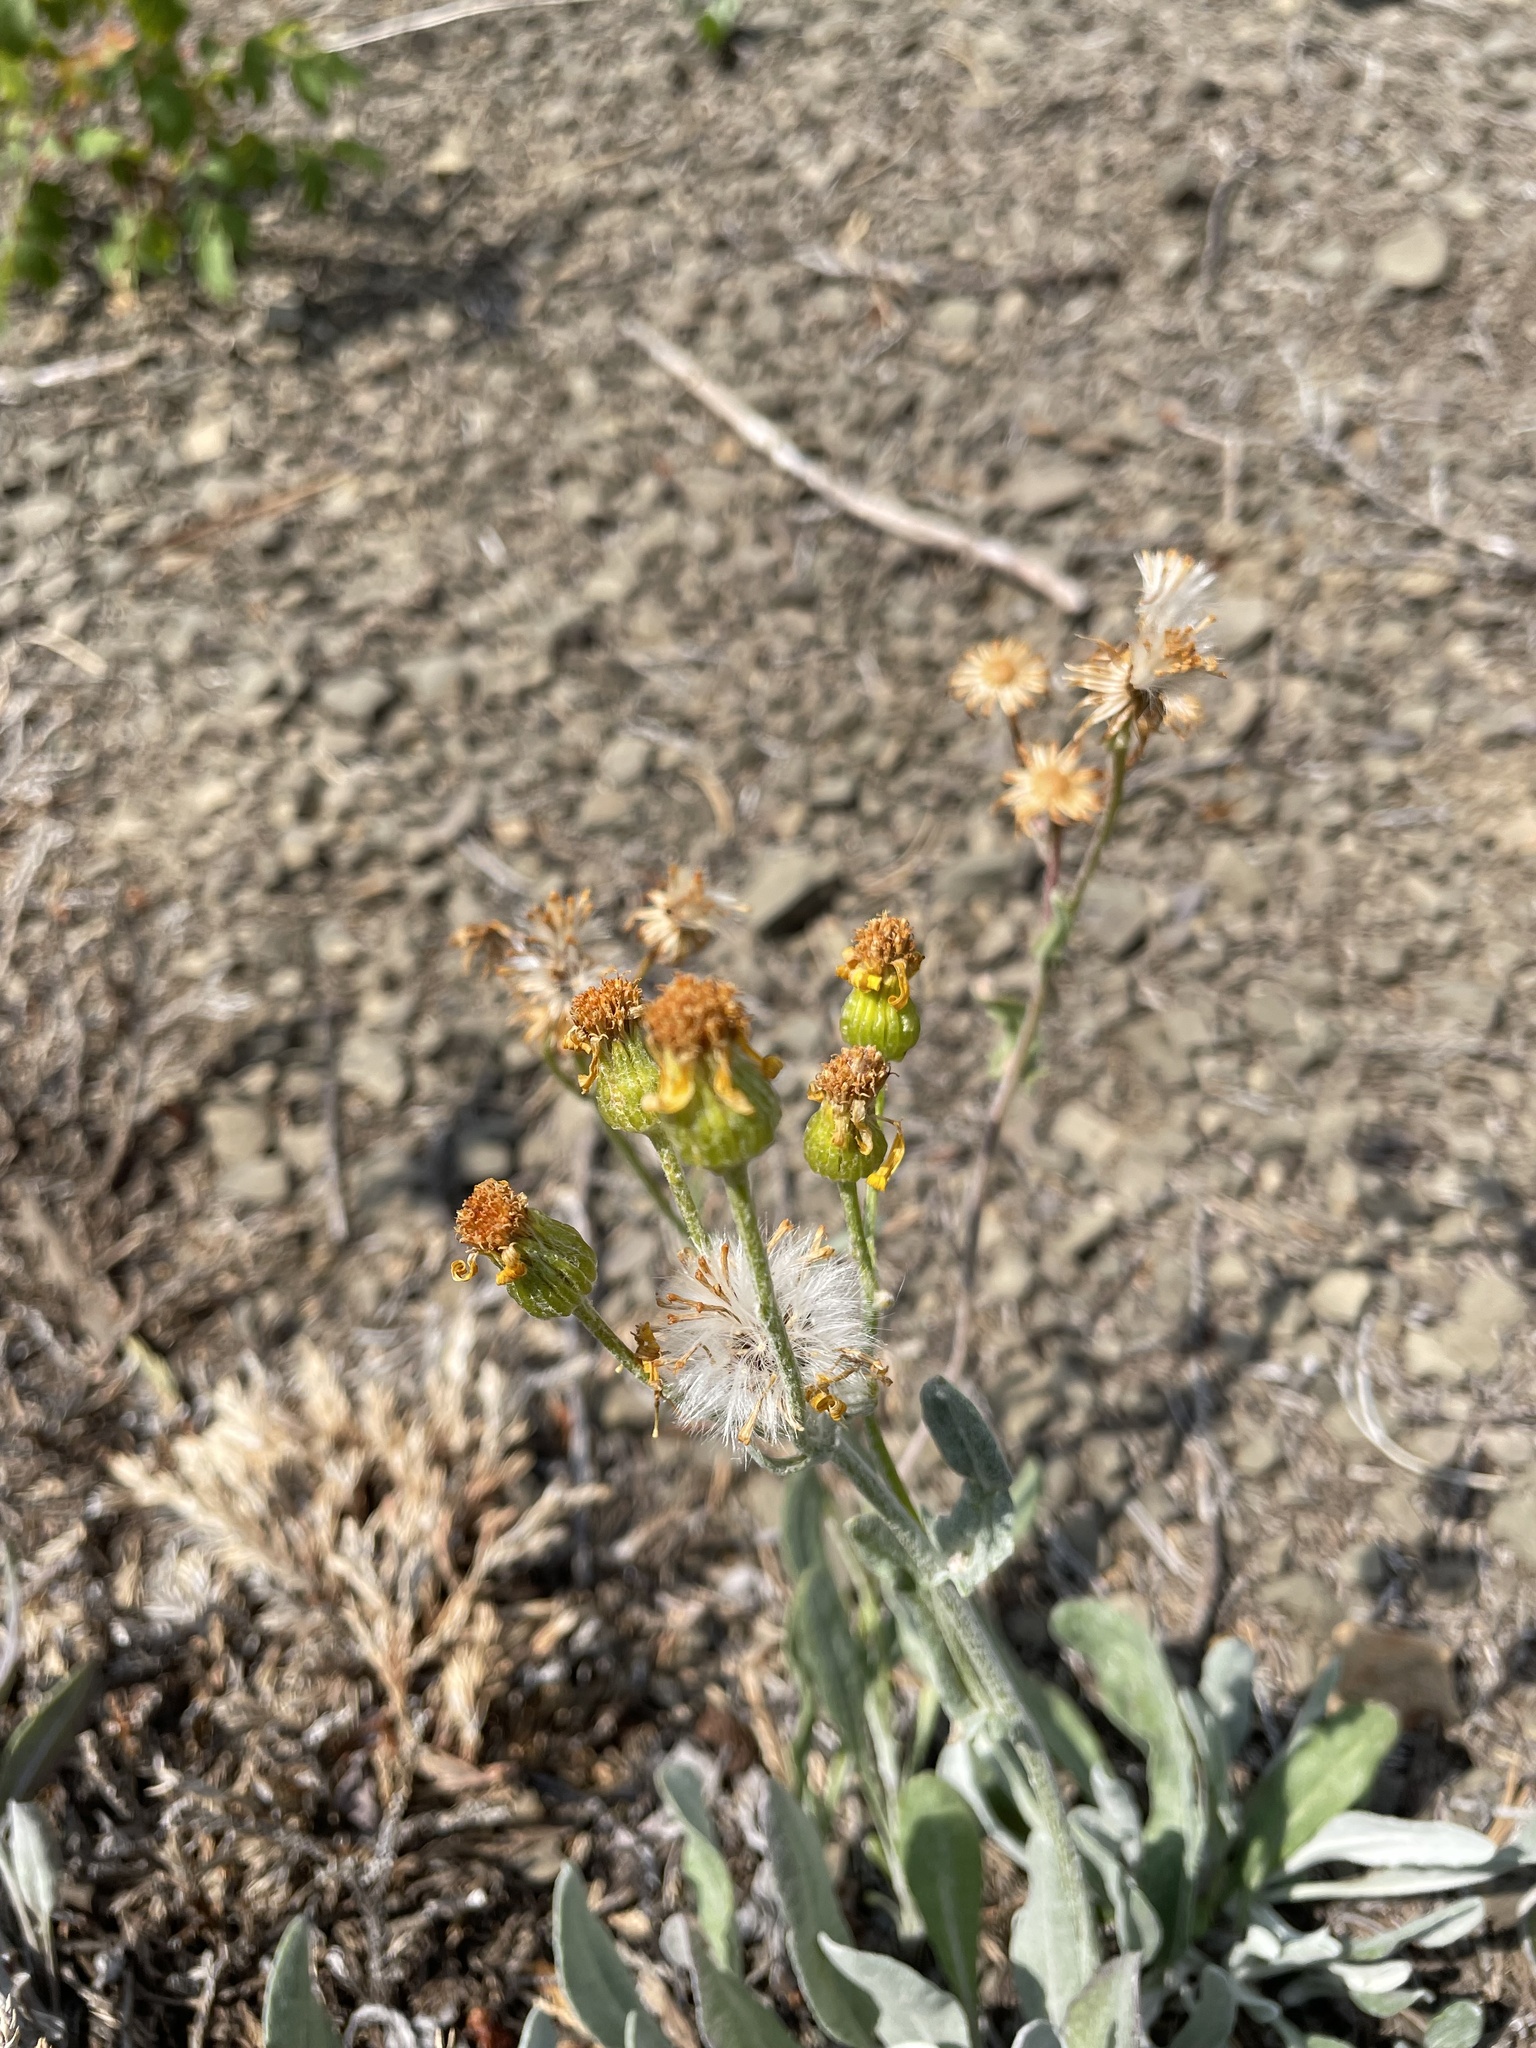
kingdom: Plantae
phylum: Tracheophyta
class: Magnoliopsida
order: Asterales
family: Asteraceae
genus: Packera
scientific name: Packera cana
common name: Woolly groundsel
